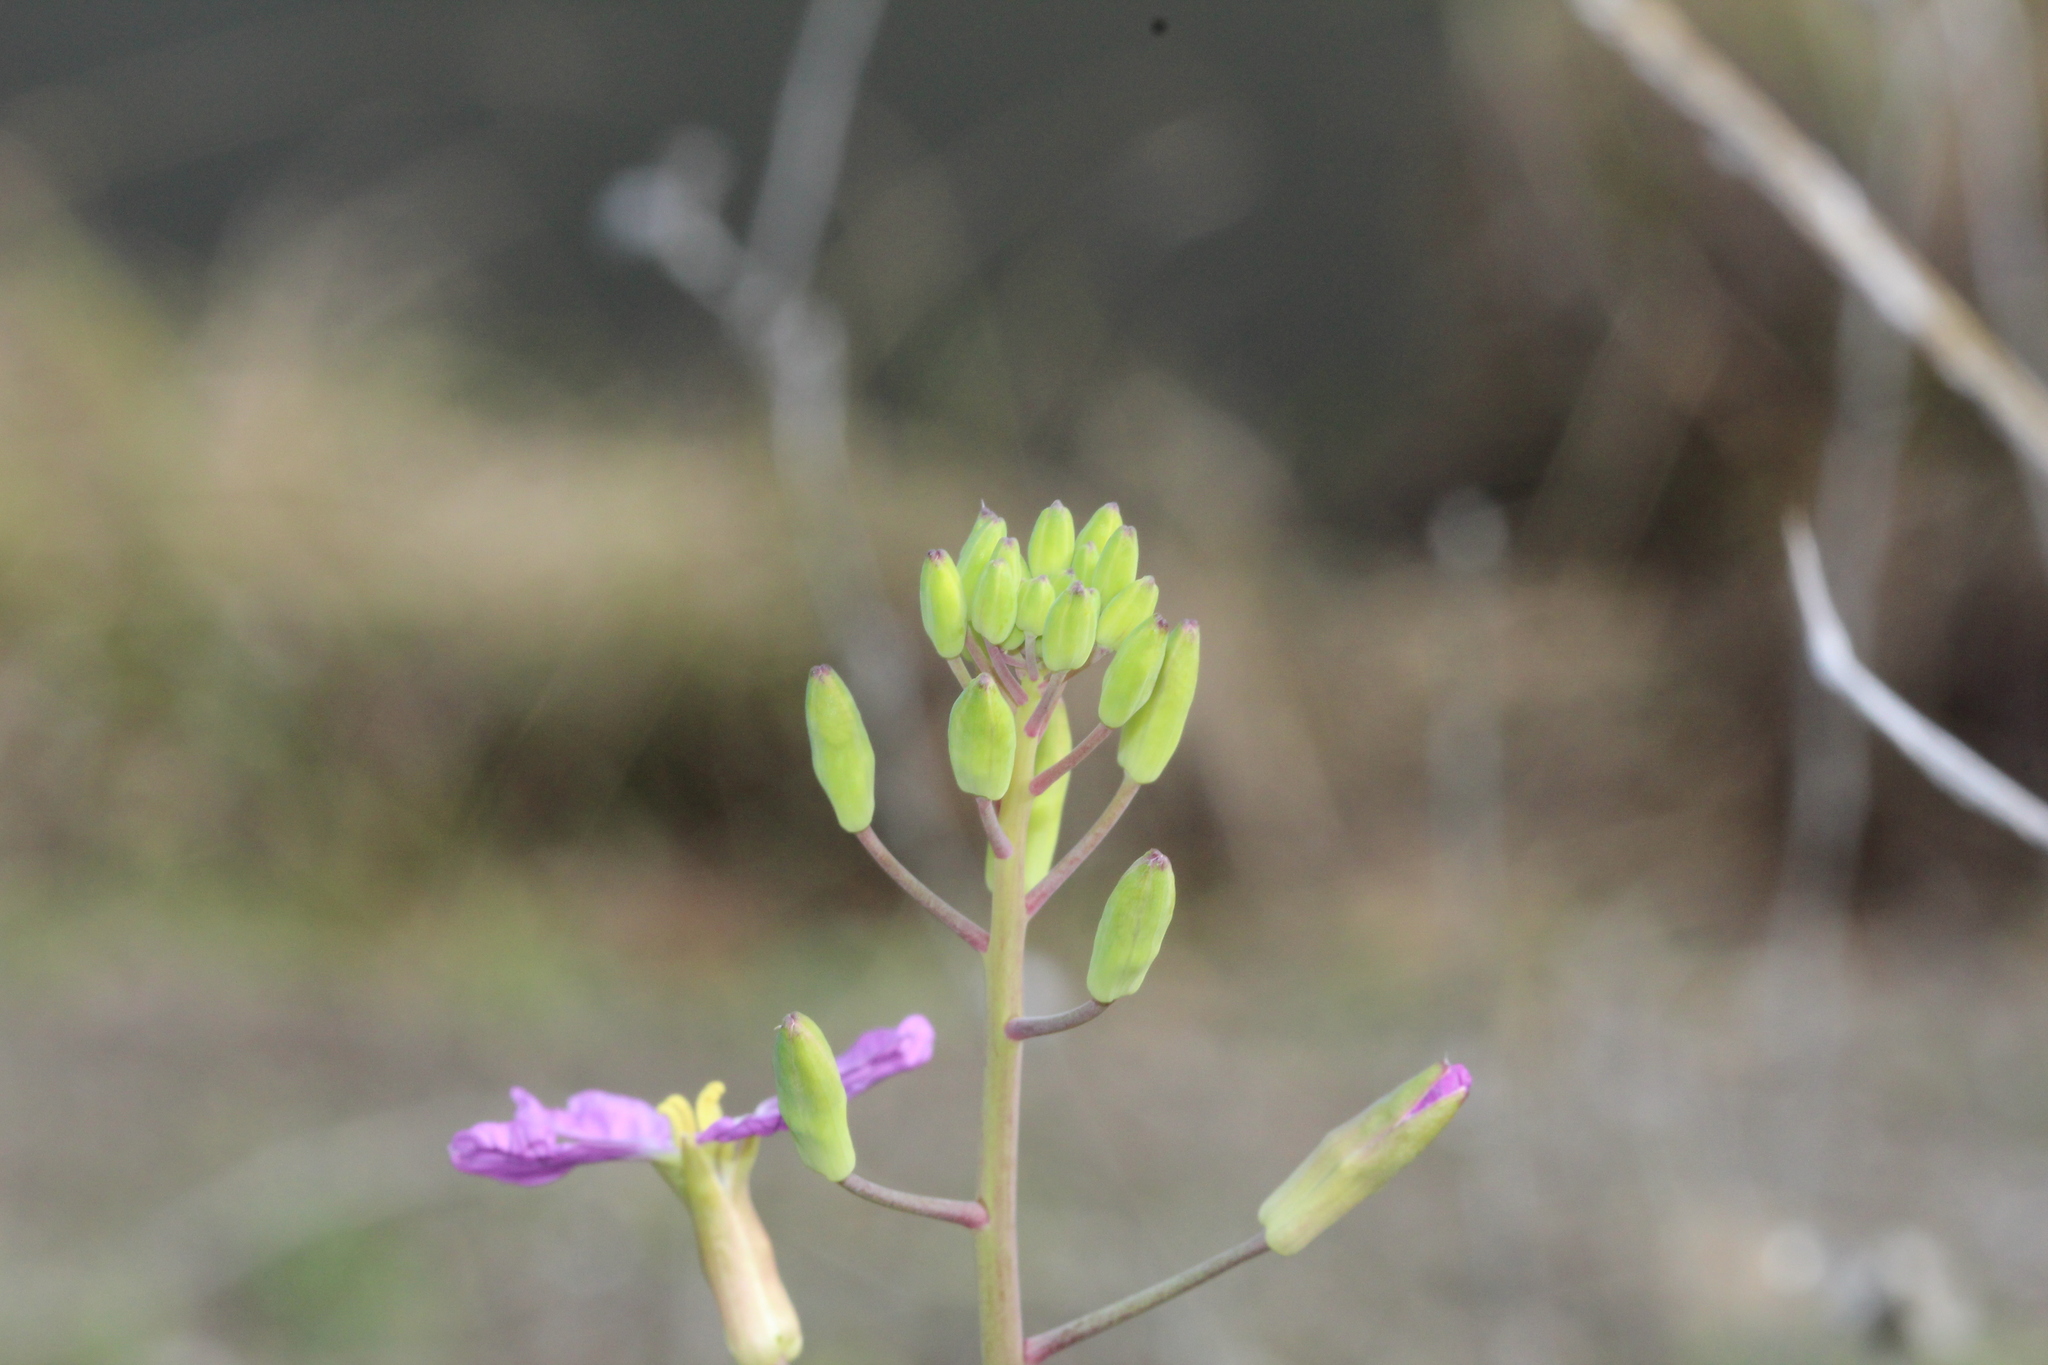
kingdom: Plantae
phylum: Tracheophyta
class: Magnoliopsida
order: Brassicales
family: Brassicaceae
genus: Raphanus
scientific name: Raphanus sativus
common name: Cultivated radish
